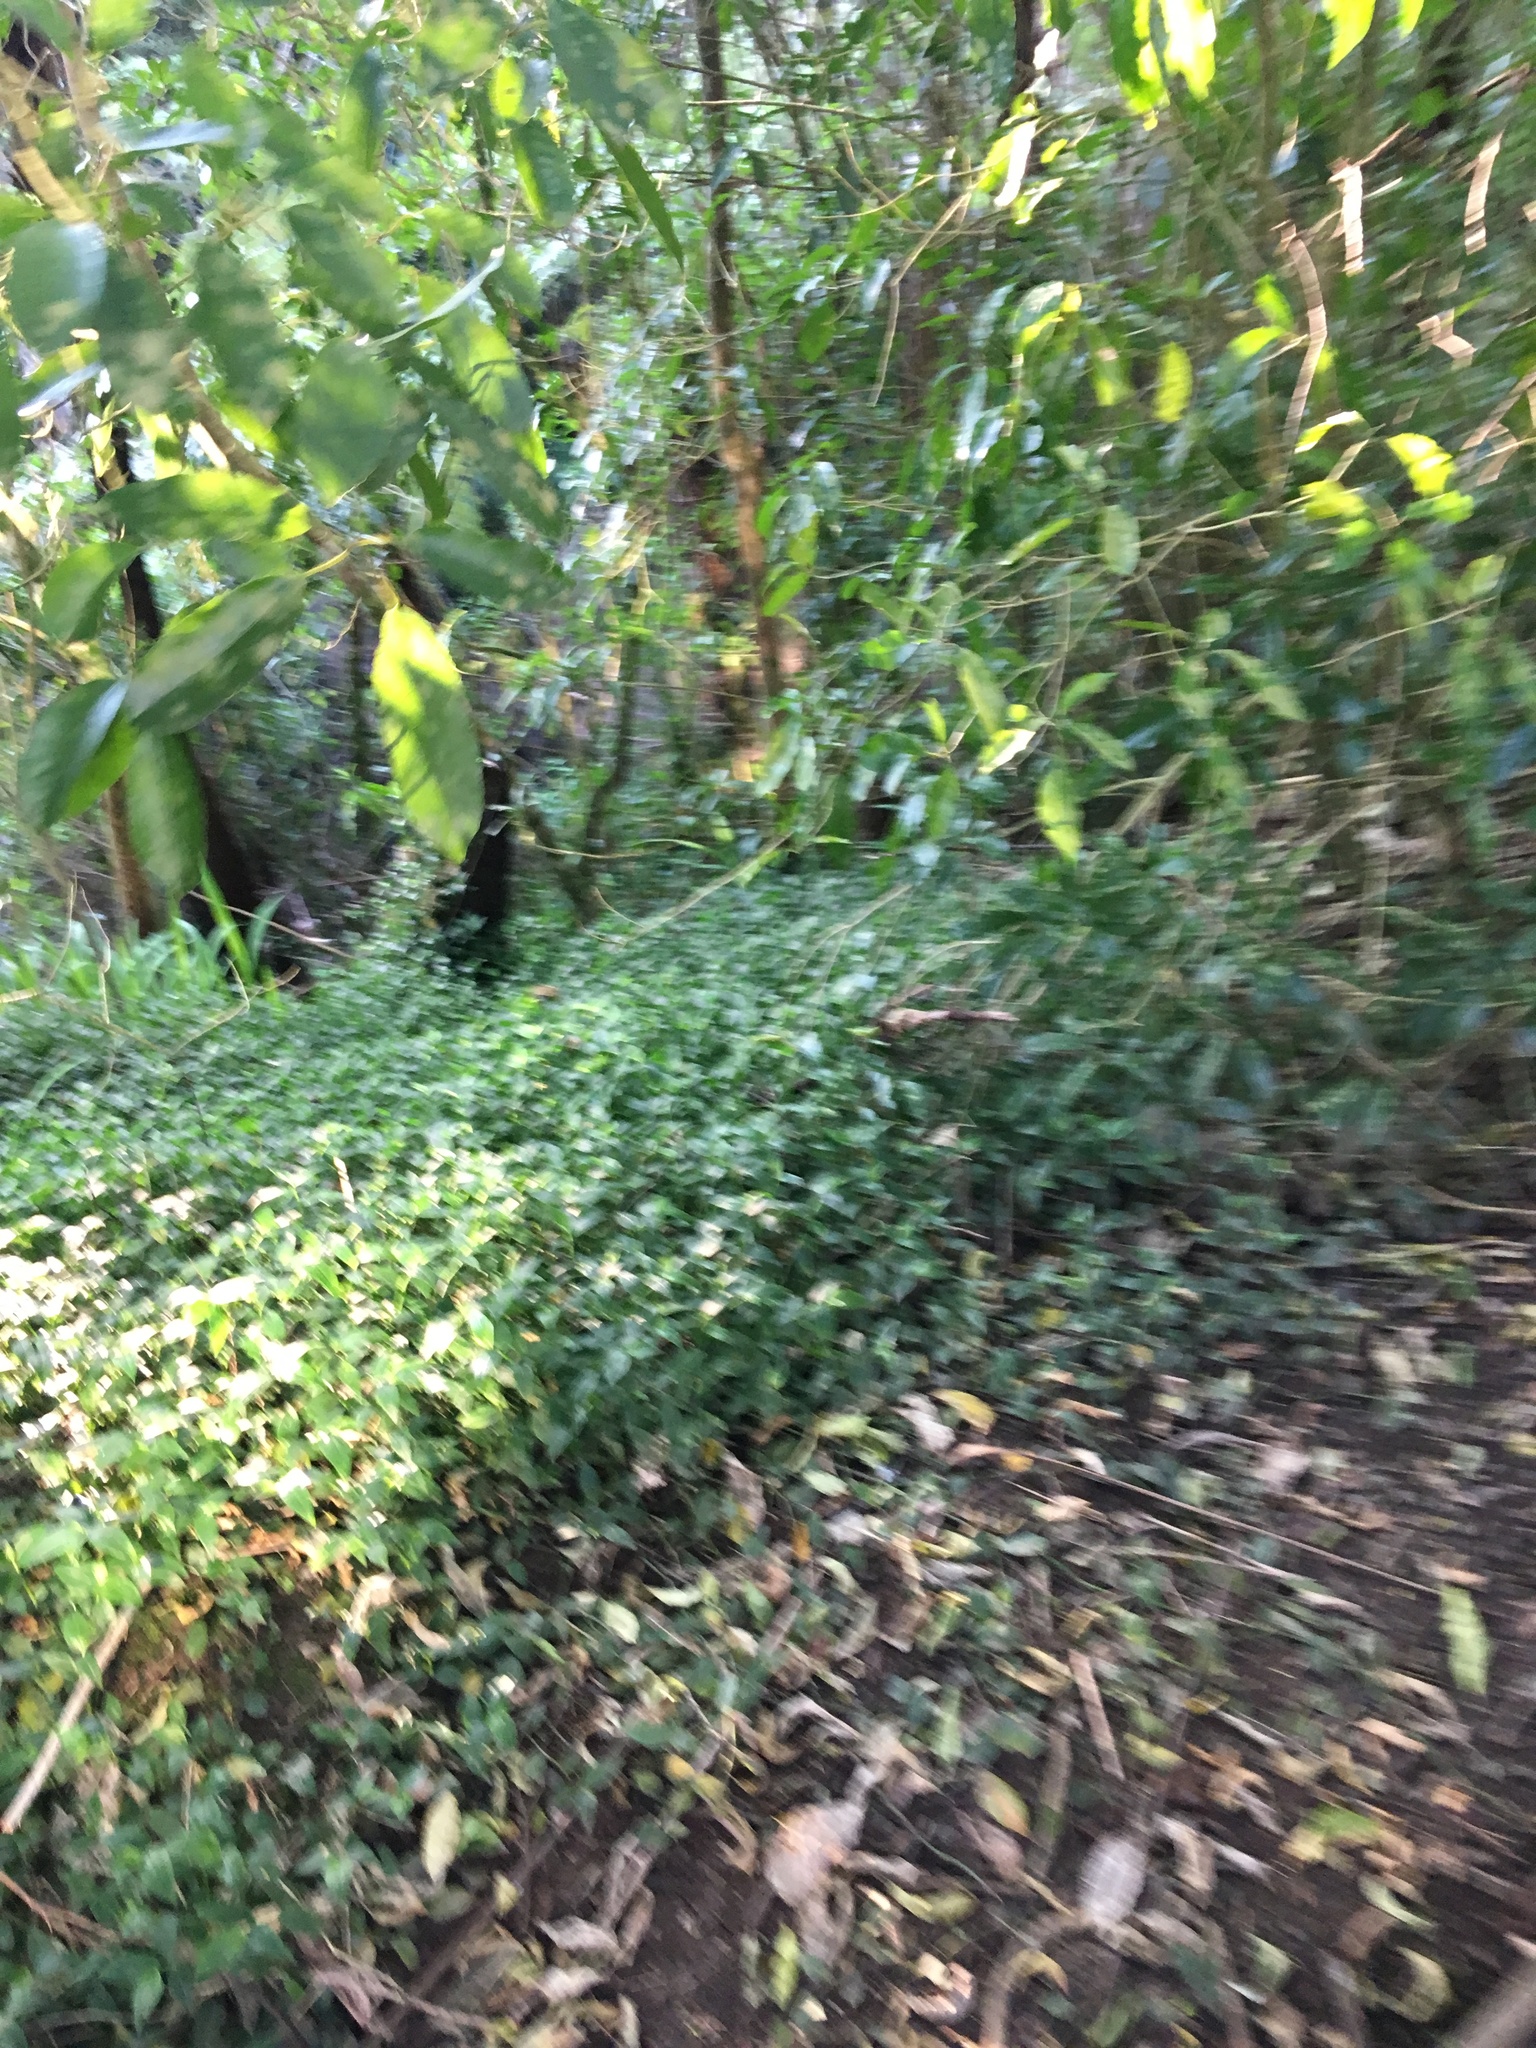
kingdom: Plantae
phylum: Tracheophyta
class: Liliopsida
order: Commelinales
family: Commelinaceae
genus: Tradescantia
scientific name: Tradescantia fluminensis
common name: Wandering-jew
